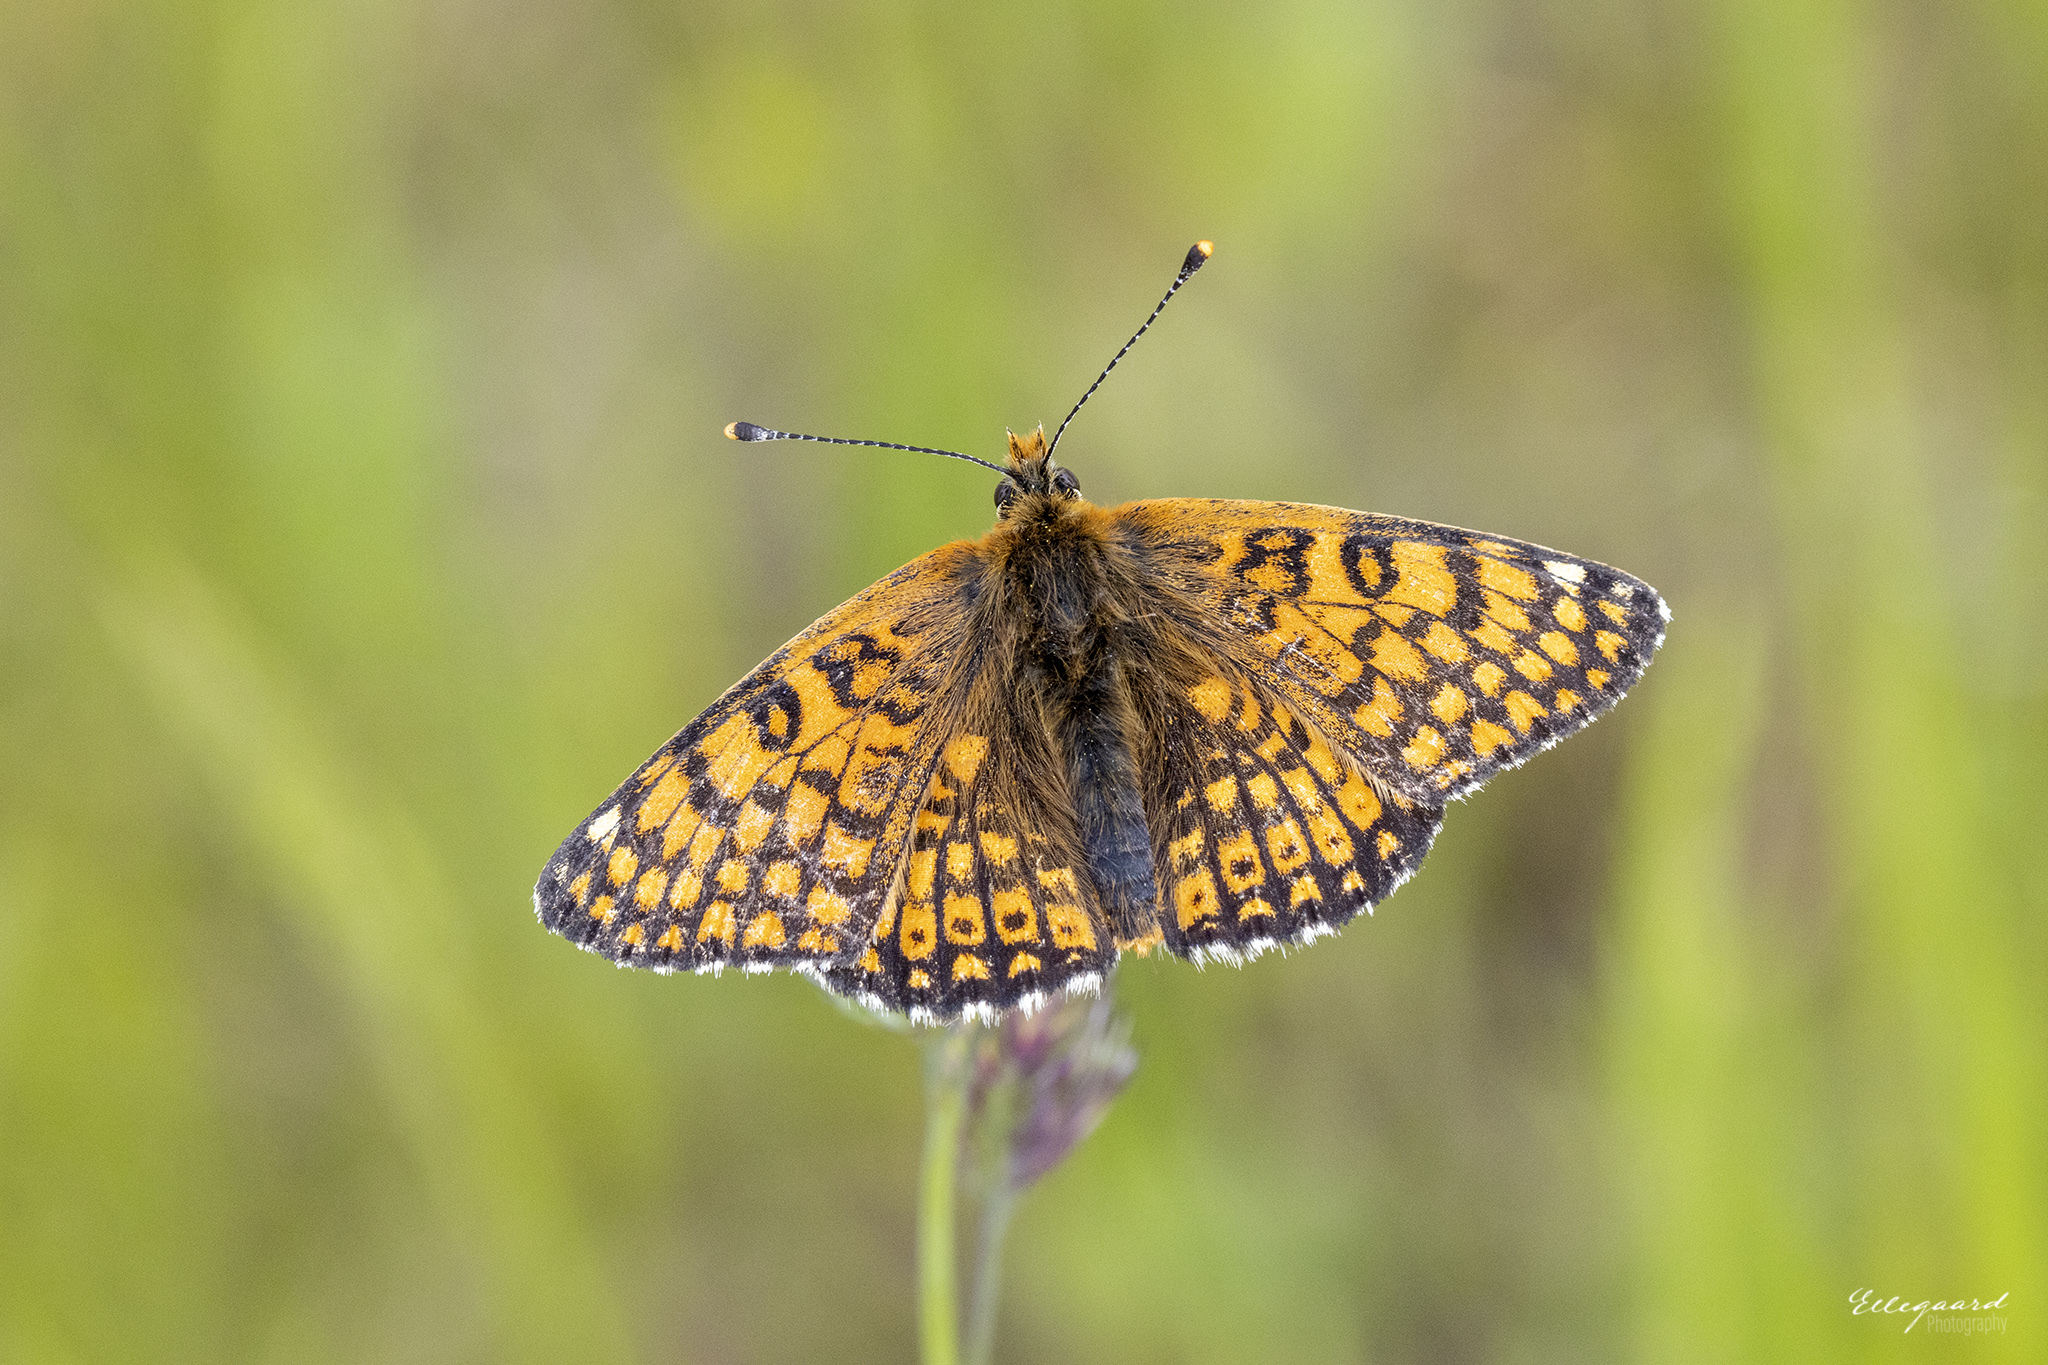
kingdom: Animalia
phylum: Arthropoda
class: Insecta
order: Lepidoptera
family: Nymphalidae
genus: Melitaea
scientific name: Melitaea cinxia
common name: Glanville fritillary
